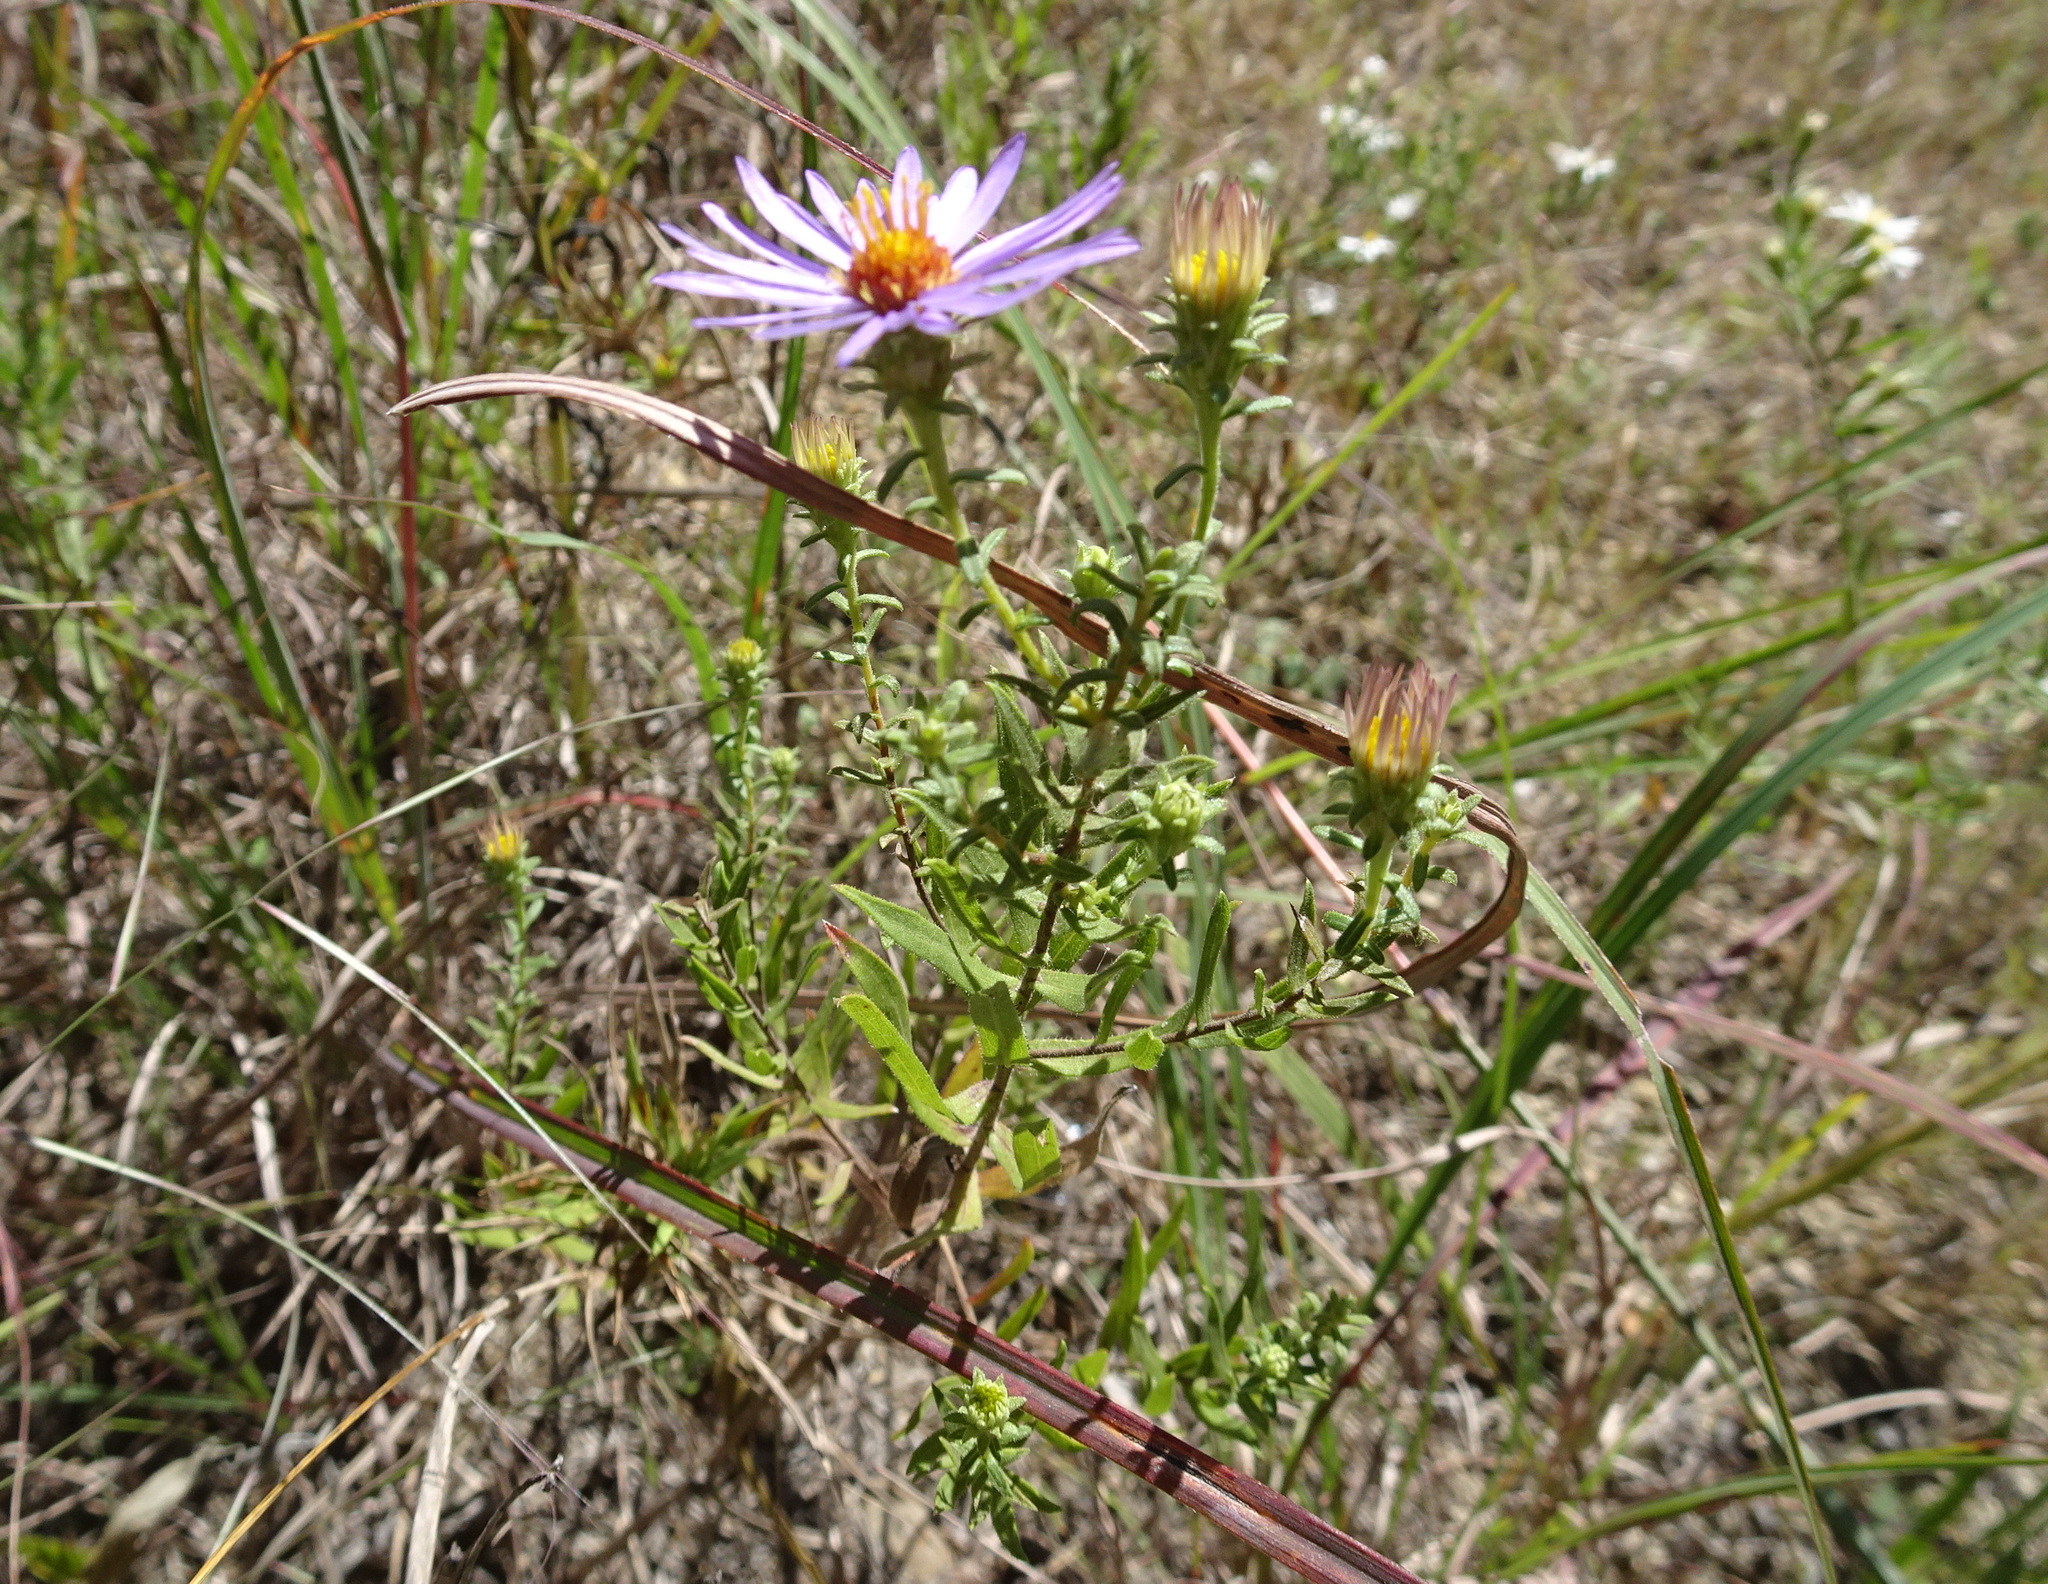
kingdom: Plantae
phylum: Tracheophyta
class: Magnoliopsida
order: Asterales
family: Asteraceae
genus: Symphyotrichum
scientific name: Symphyotrichum oblongifolium
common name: Aromatic aster
